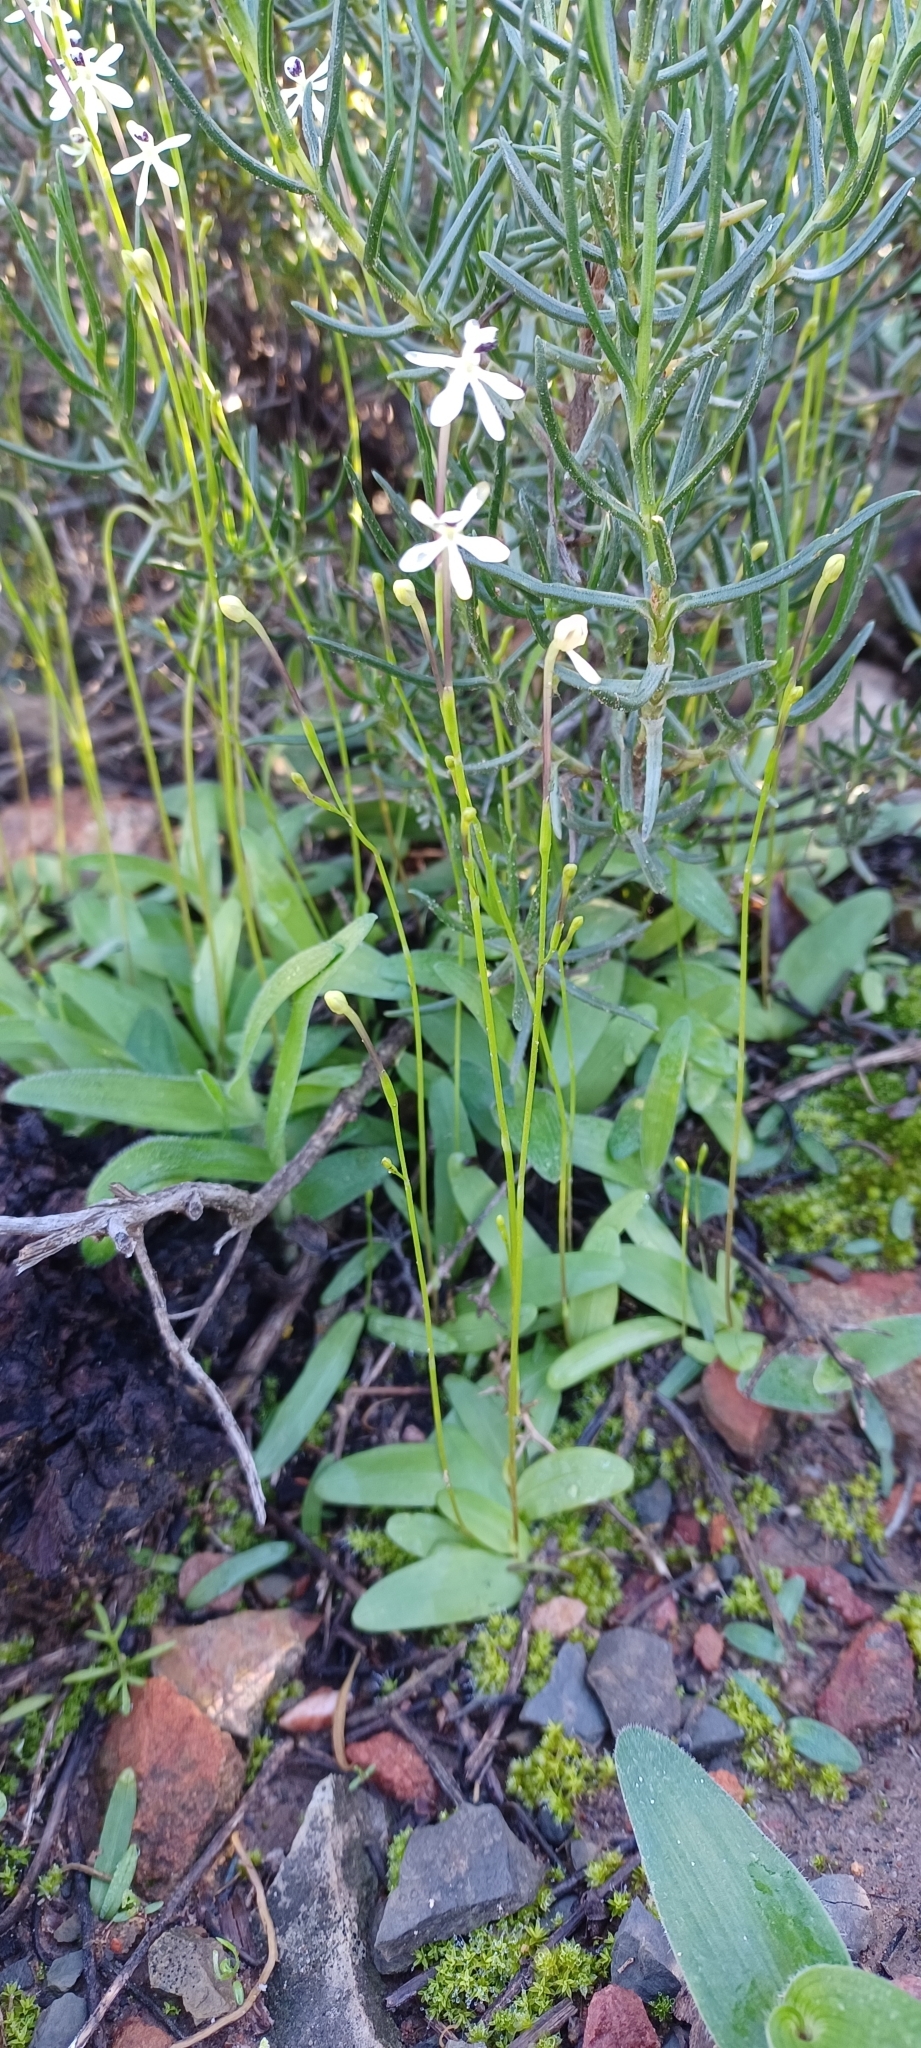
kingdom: Plantae
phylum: Tracheophyta
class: Liliopsida
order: Asparagales
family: Iridaceae
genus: Xenoscapa
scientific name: Xenoscapa fistulosa
